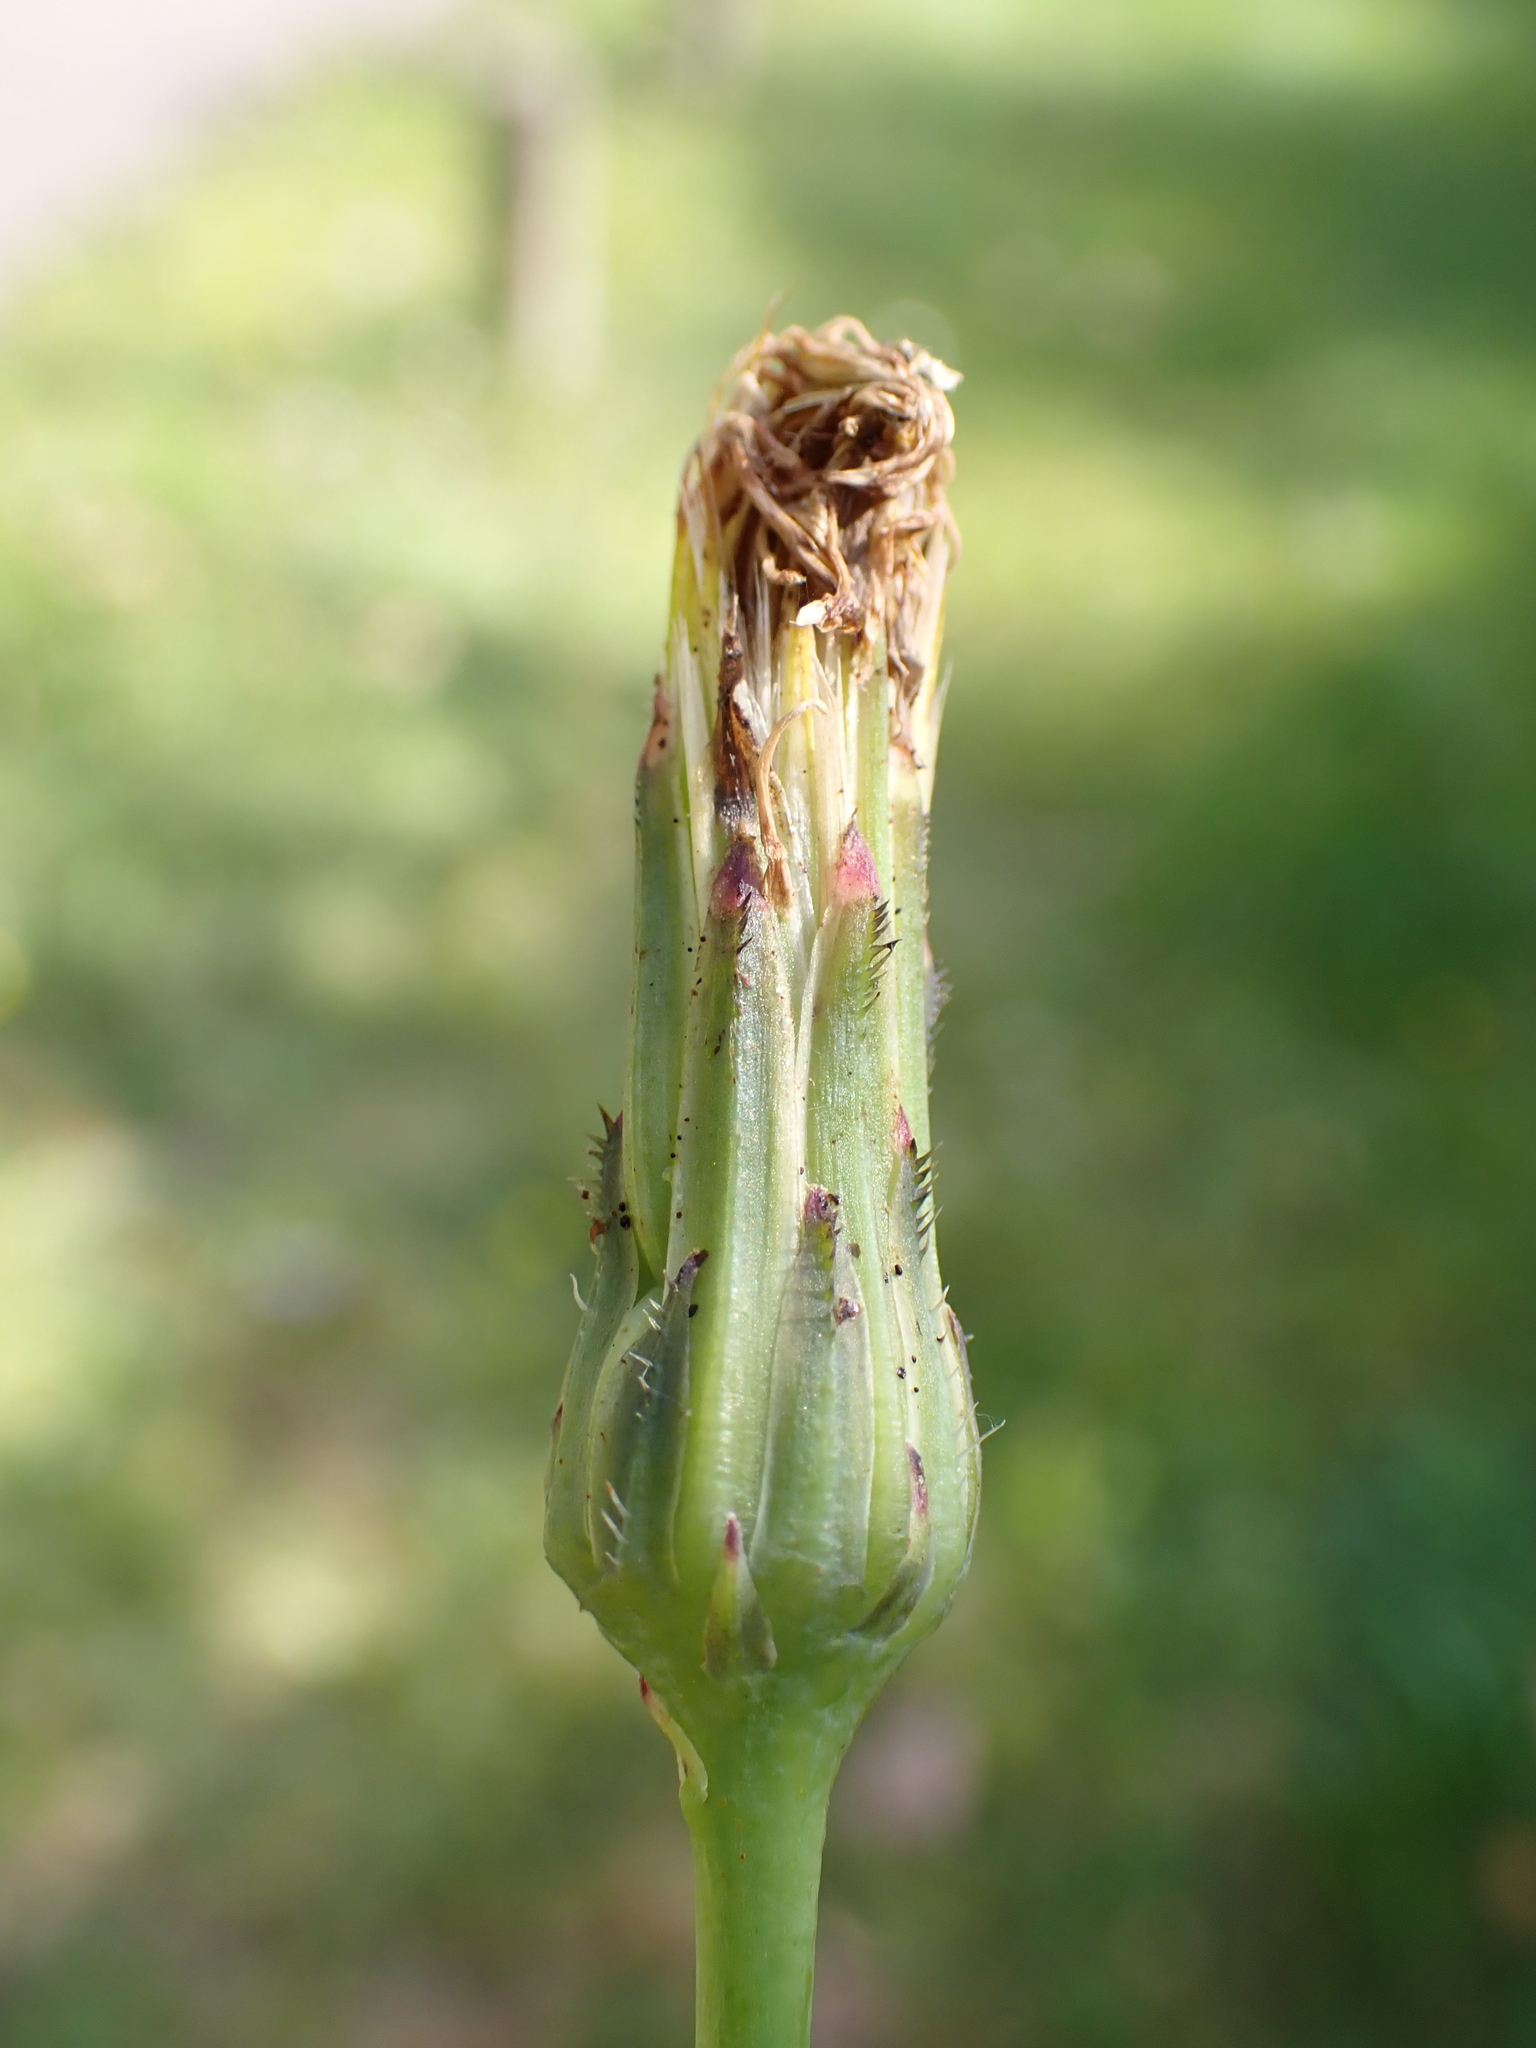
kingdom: Plantae
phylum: Tracheophyta
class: Magnoliopsida
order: Asterales
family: Asteraceae
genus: Hypochaeris
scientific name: Hypochaeris radicata
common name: Flatweed
